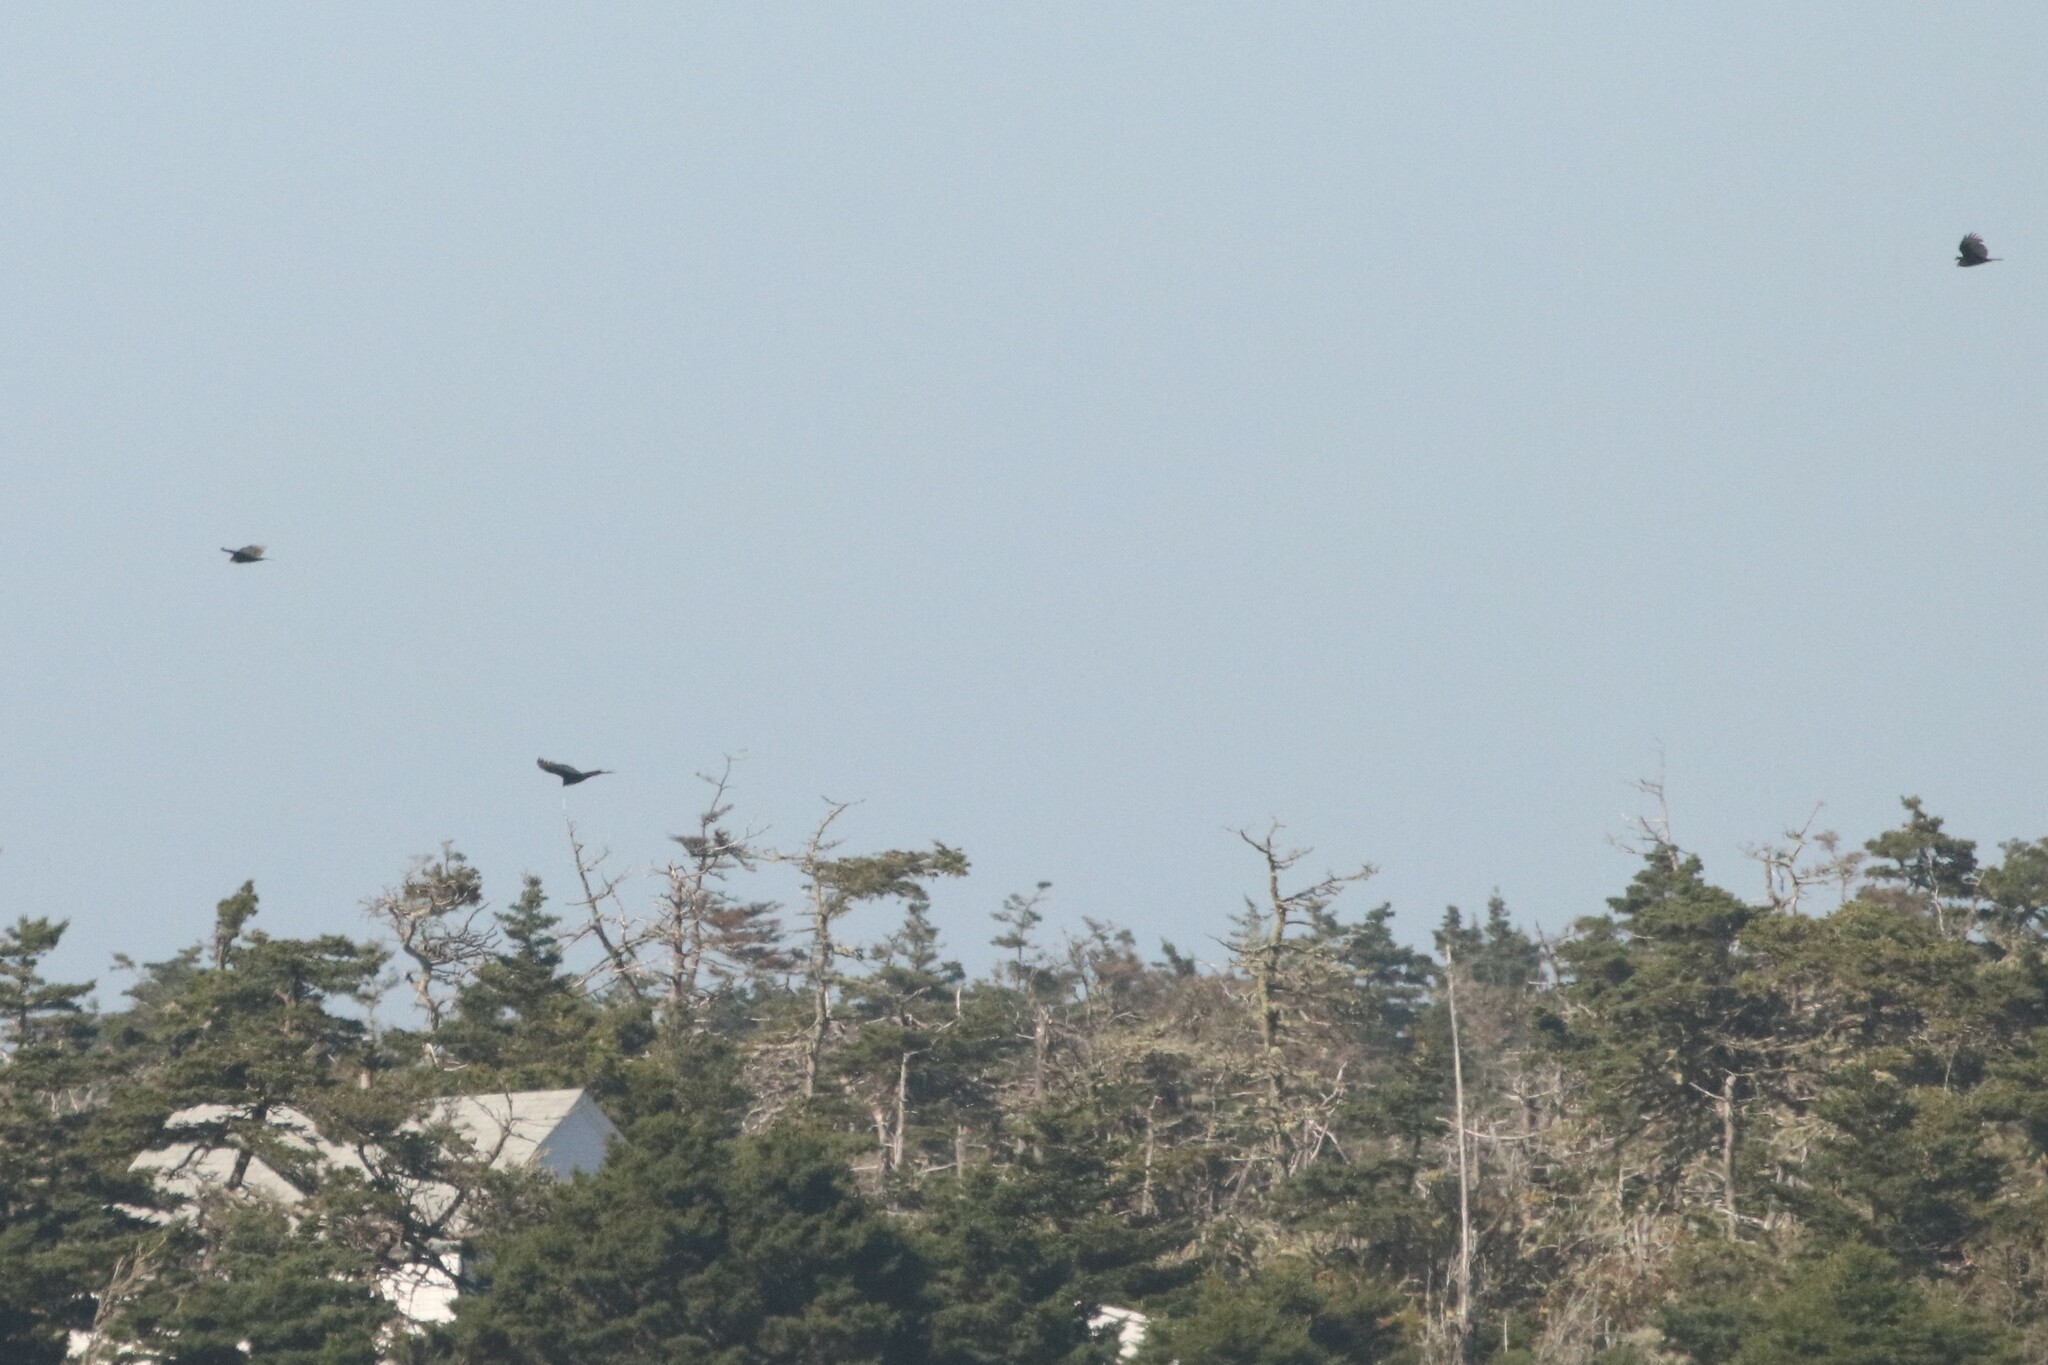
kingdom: Animalia
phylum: Chordata
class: Aves
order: Accipitriformes
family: Cathartidae
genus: Cathartes
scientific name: Cathartes aura
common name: Turkey vulture
